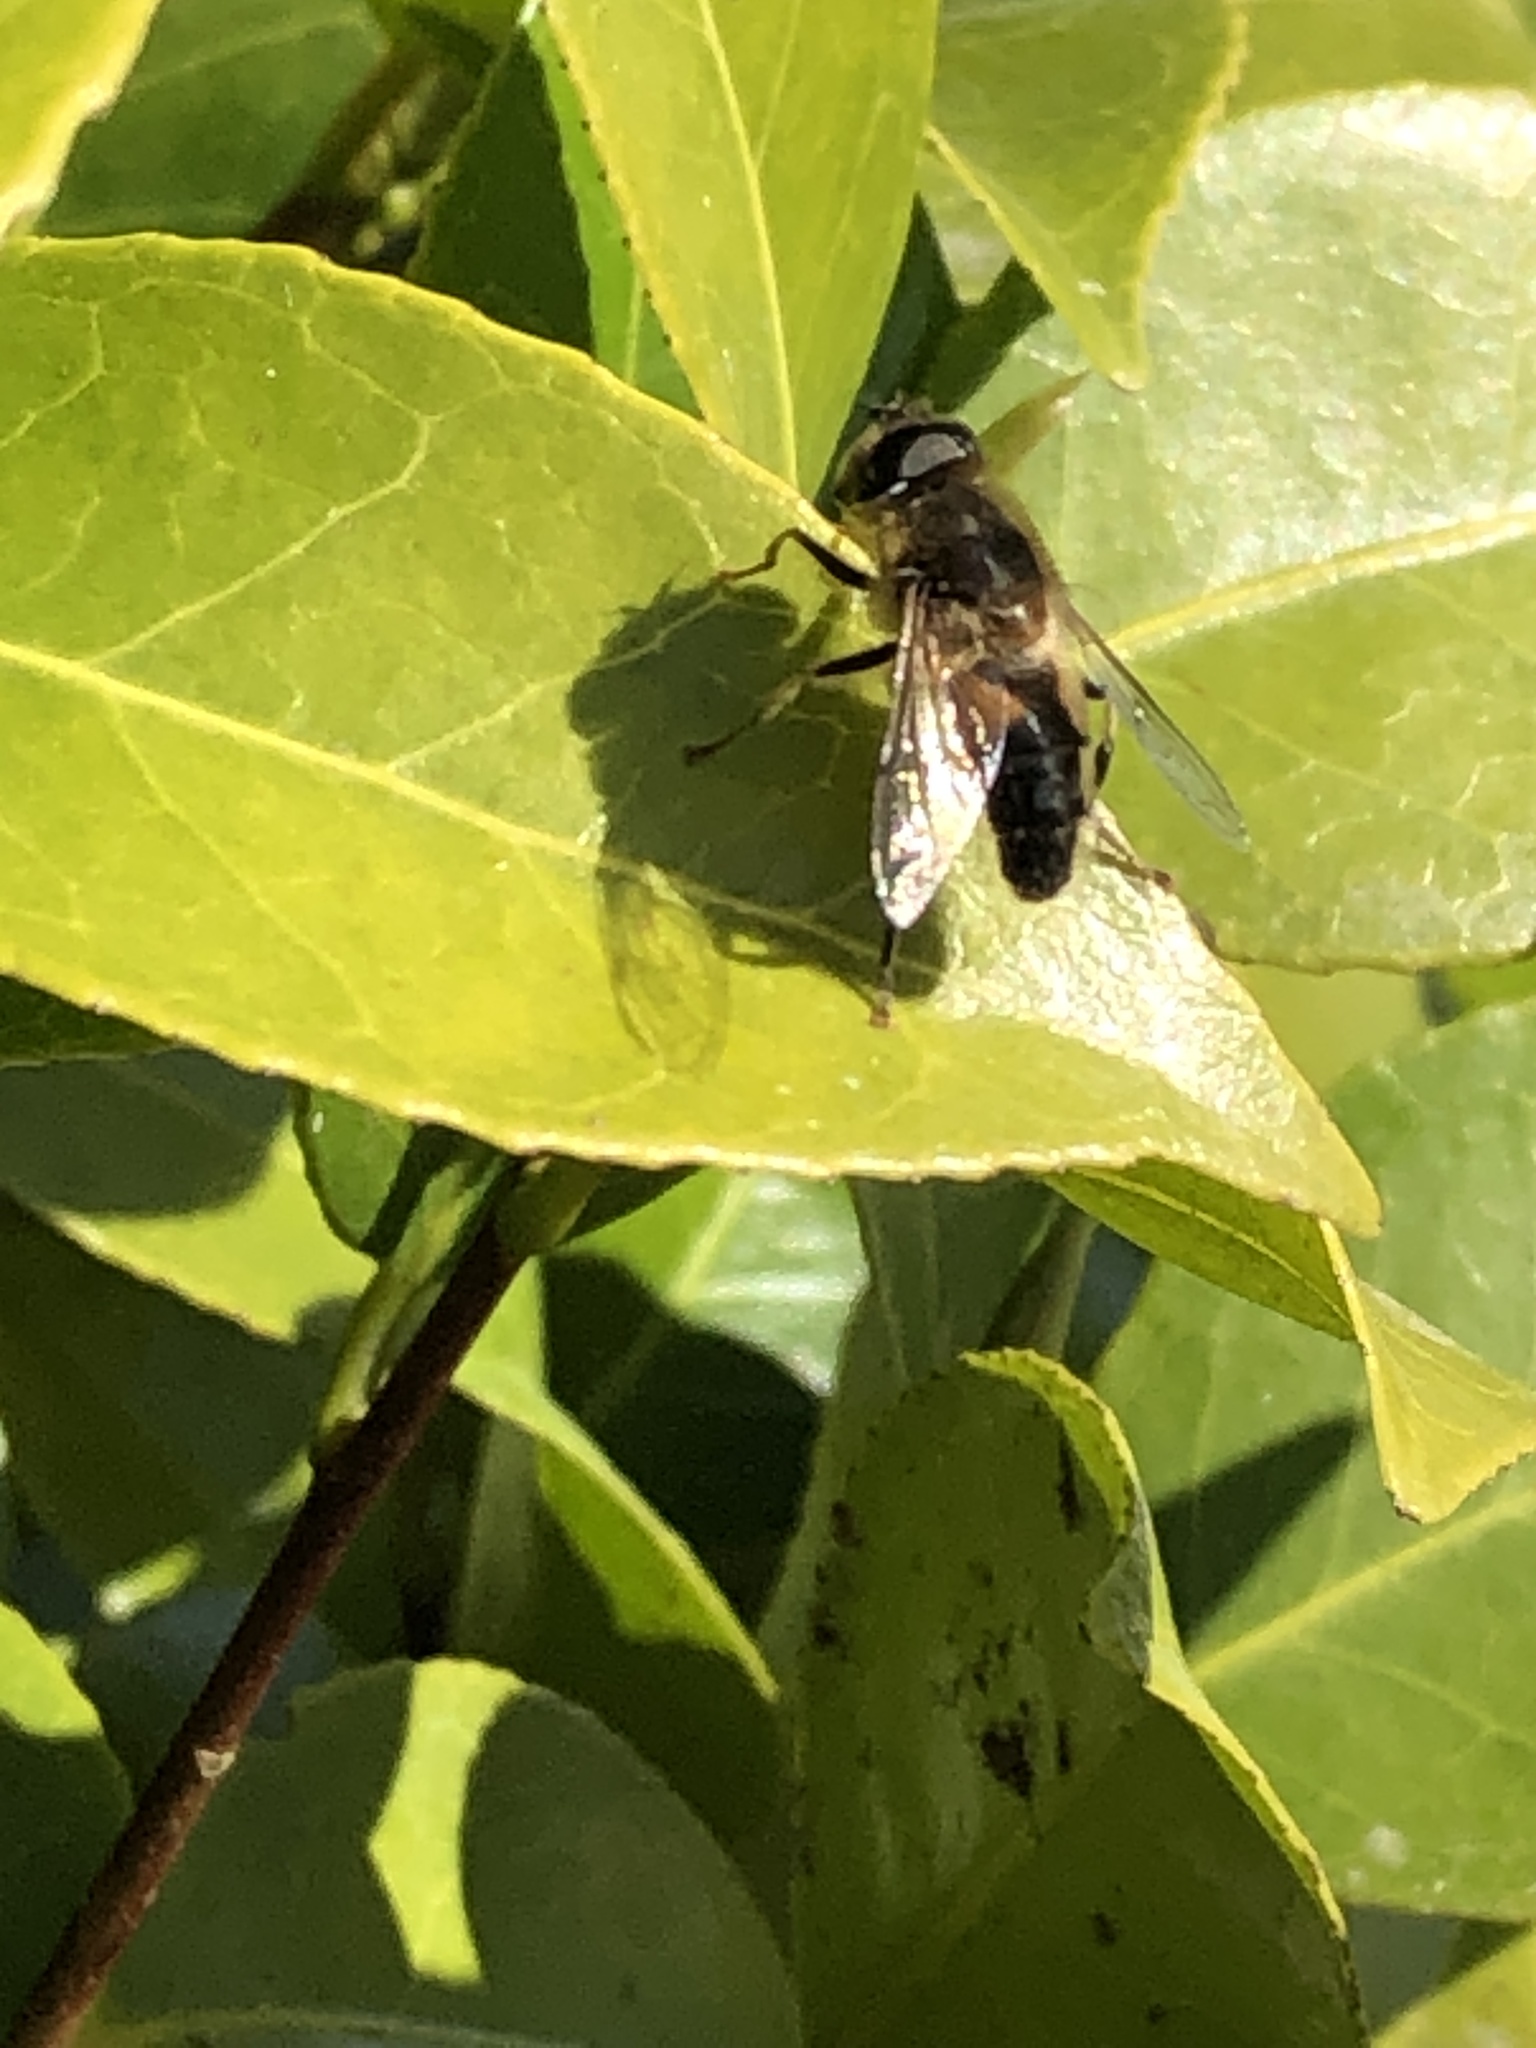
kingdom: Animalia
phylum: Arthropoda
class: Insecta
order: Diptera
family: Syrphidae
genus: Eristalis
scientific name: Eristalis
